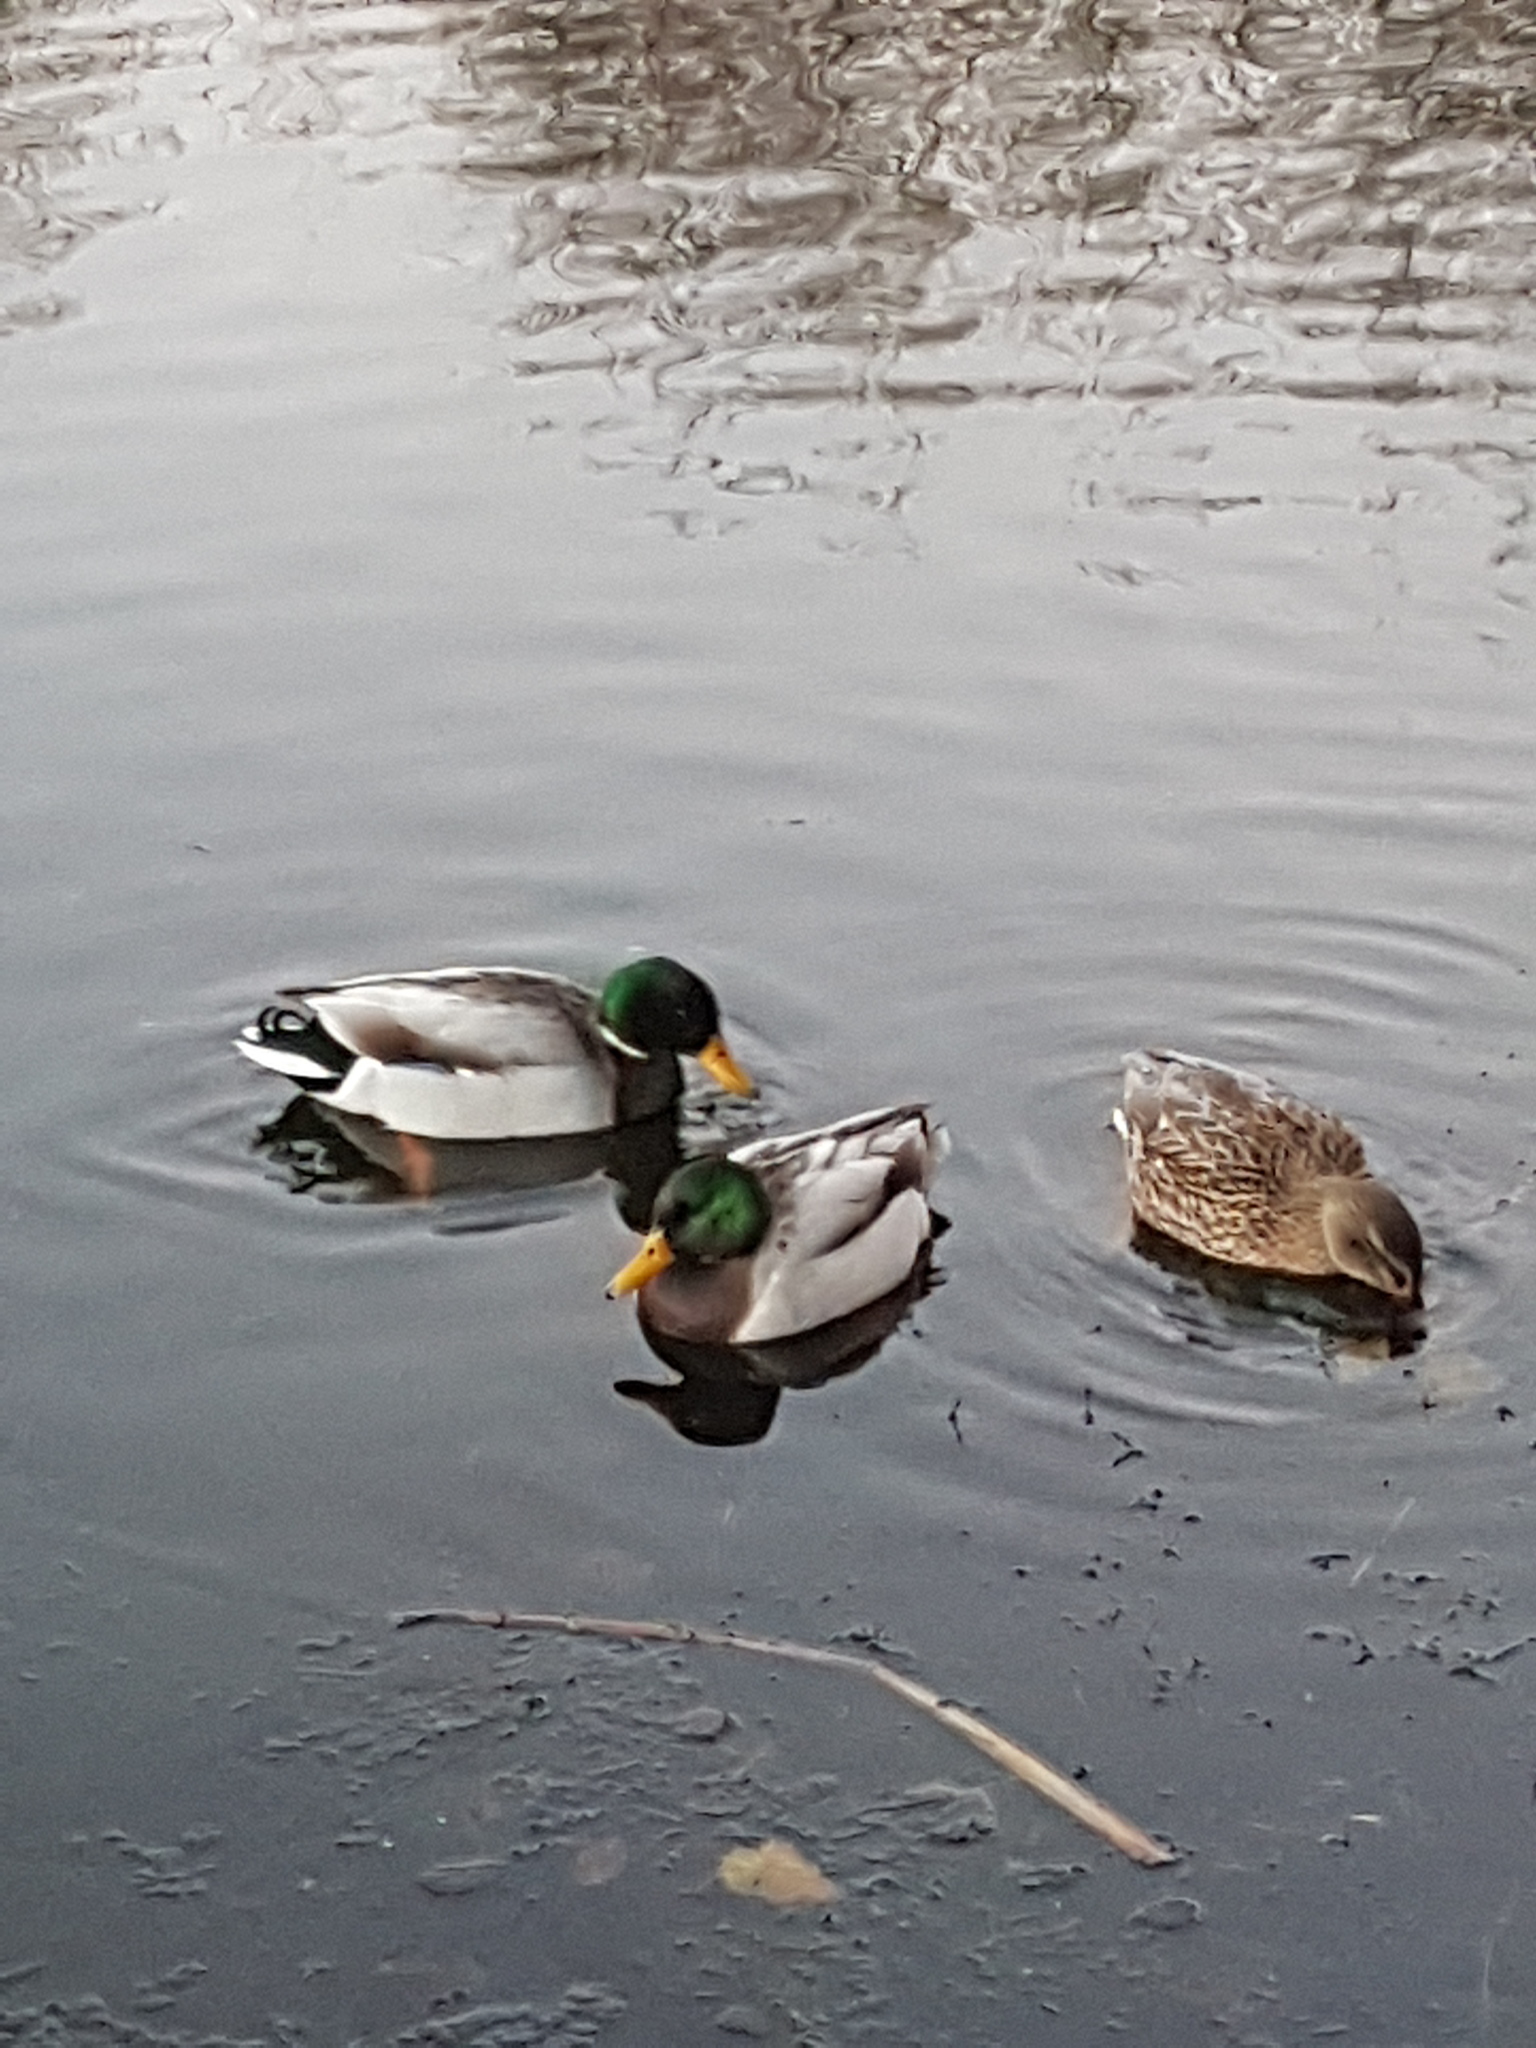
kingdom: Animalia
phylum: Chordata
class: Aves
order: Anseriformes
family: Anatidae
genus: Anas
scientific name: Anas platyrhynchos
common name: Mallard
